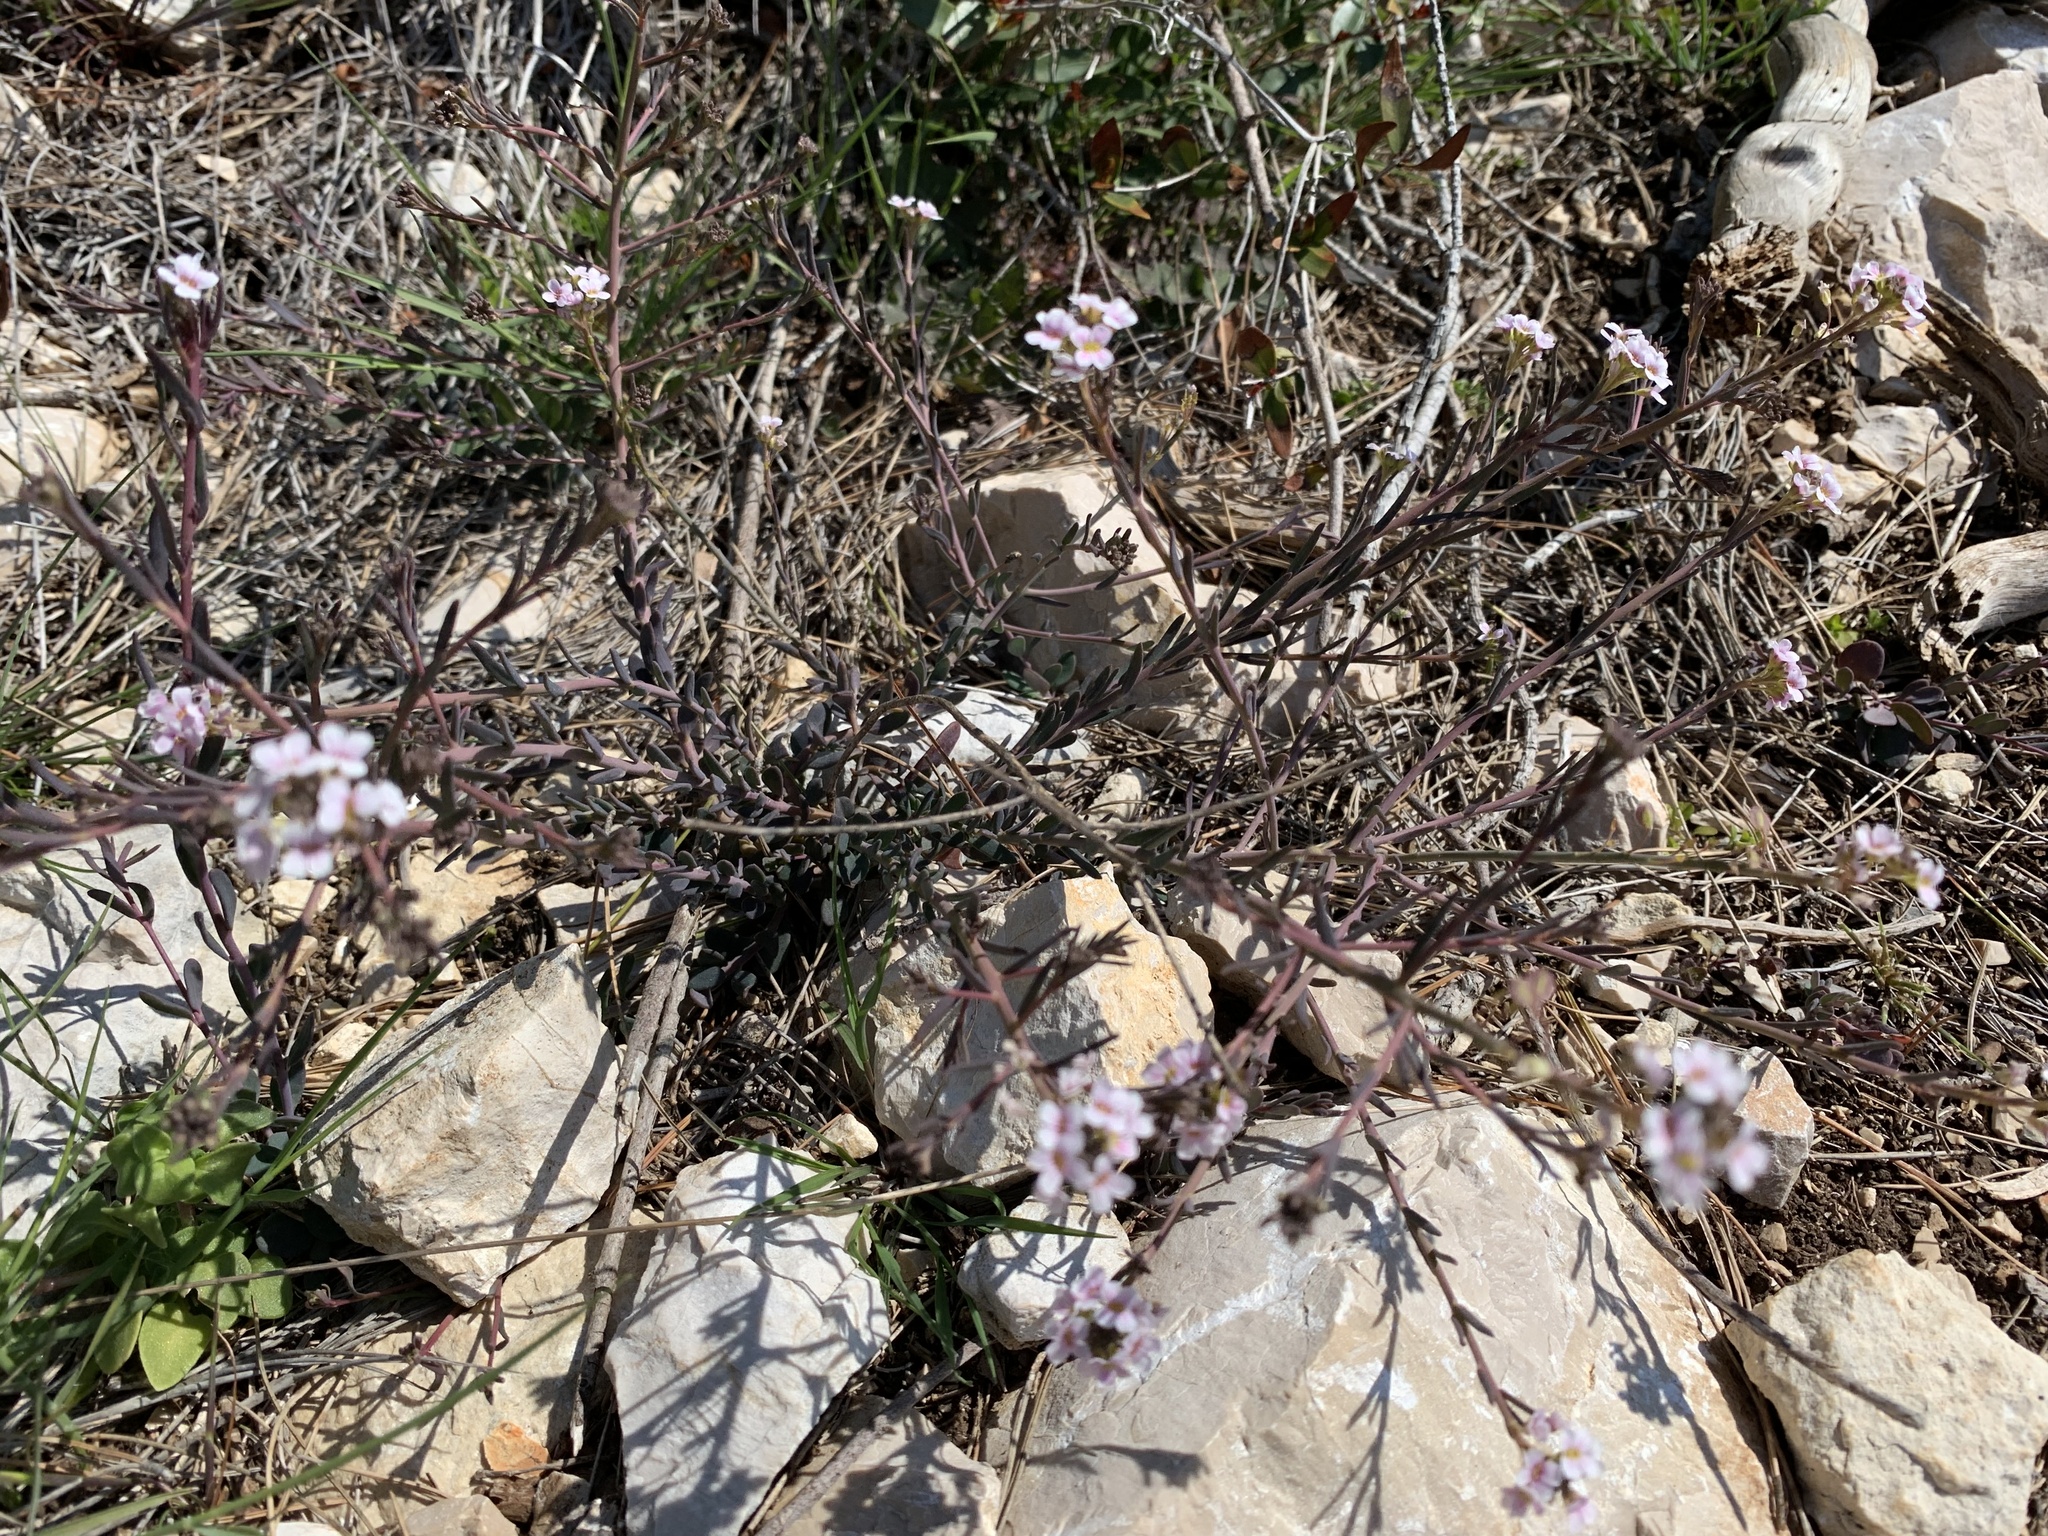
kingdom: Plantae
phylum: Tracheophyta
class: Magnoliopsida
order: Brassicales
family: Brassicaceae
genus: Aethionema
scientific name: Aethionema saxatile
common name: Burnt candytuft
